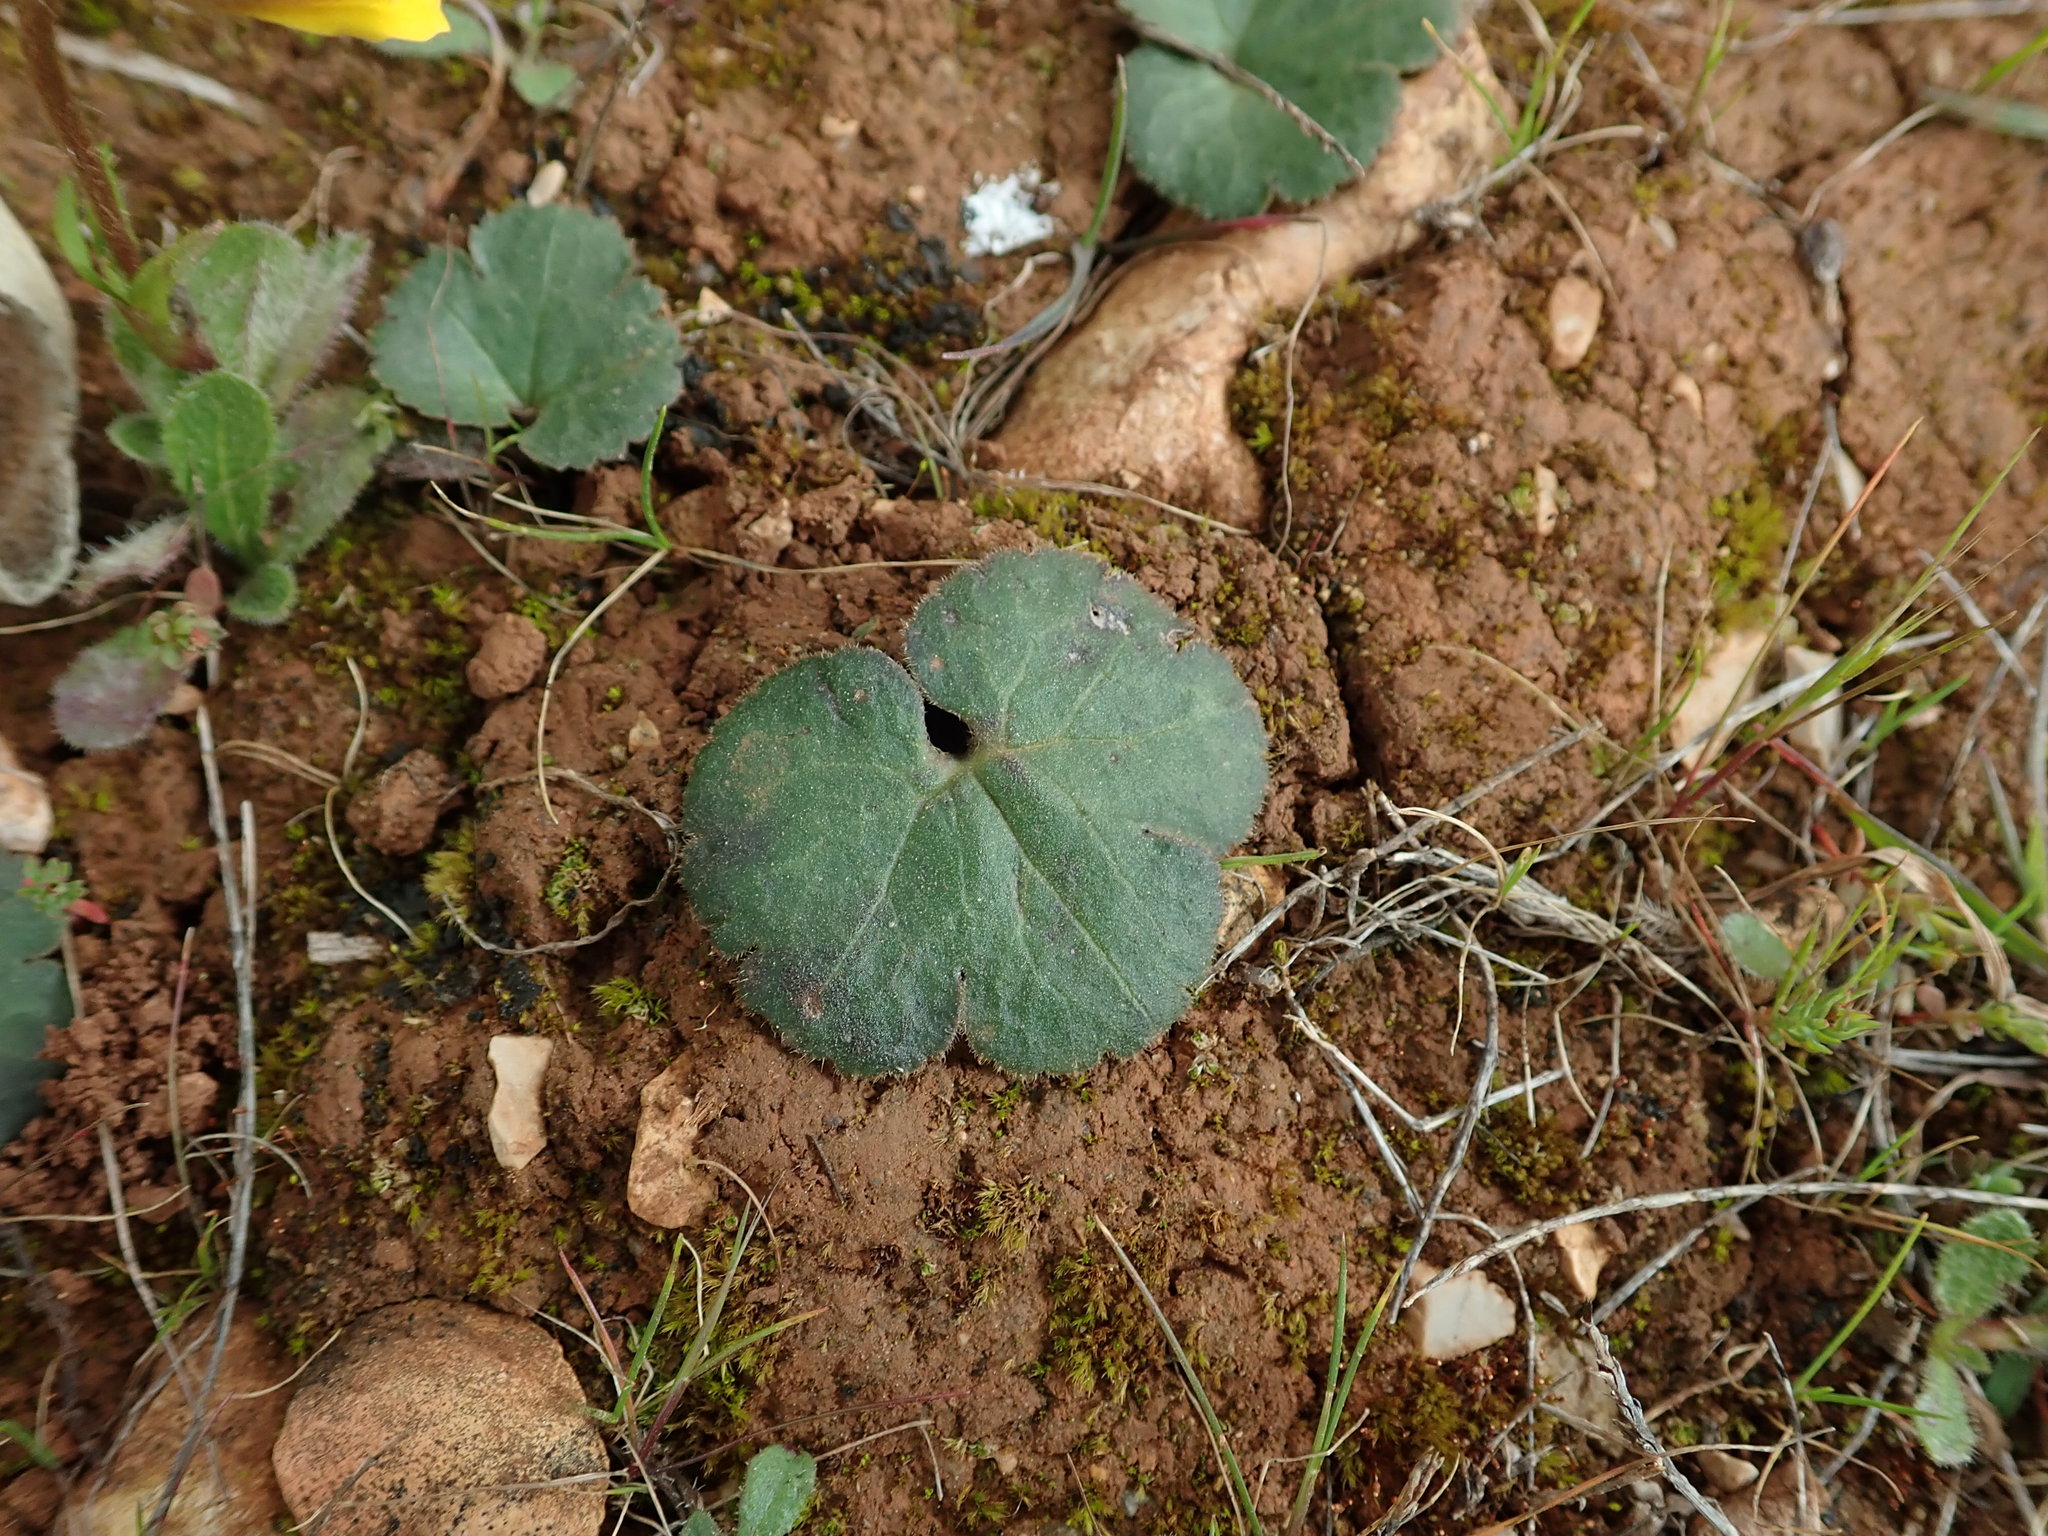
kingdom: Plantae
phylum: Tracheophyta
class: Magnoliopsida
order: Ranunculales
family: Ranunculaceae
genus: Anemone
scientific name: Anemone palmata
